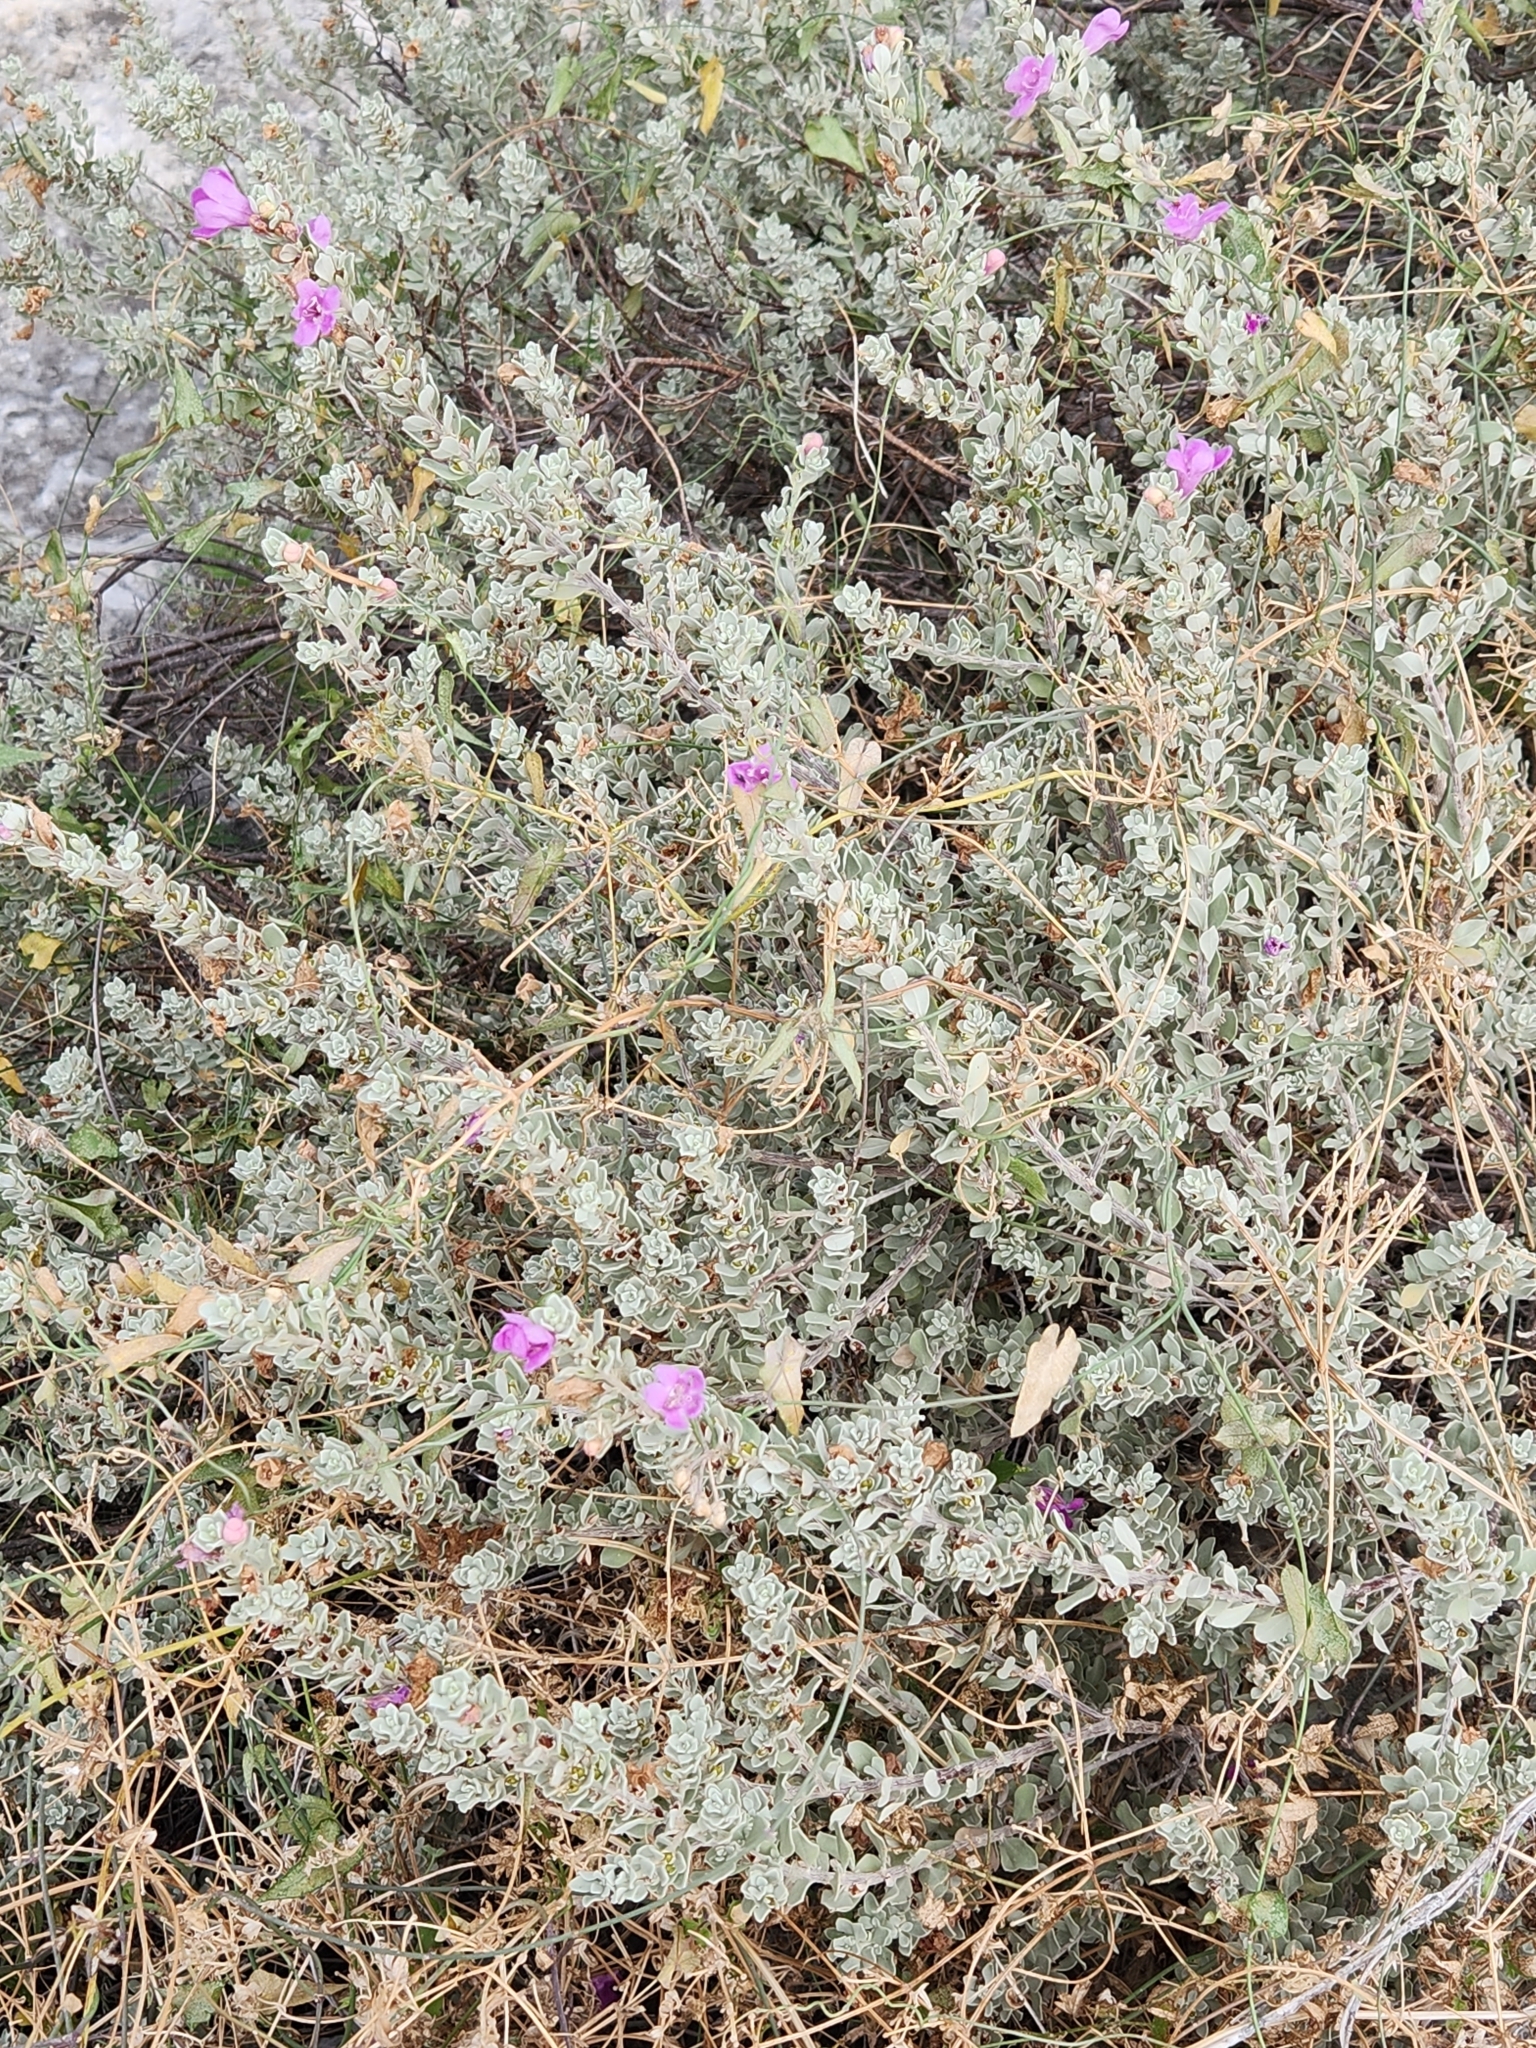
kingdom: Plantae
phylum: Tracheophyta
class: Magnoliopsida
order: Lamiales
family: Scrophulariaceae
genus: Leucophyllum
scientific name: Leucophyllum frutescens
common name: Texas silverleaf
